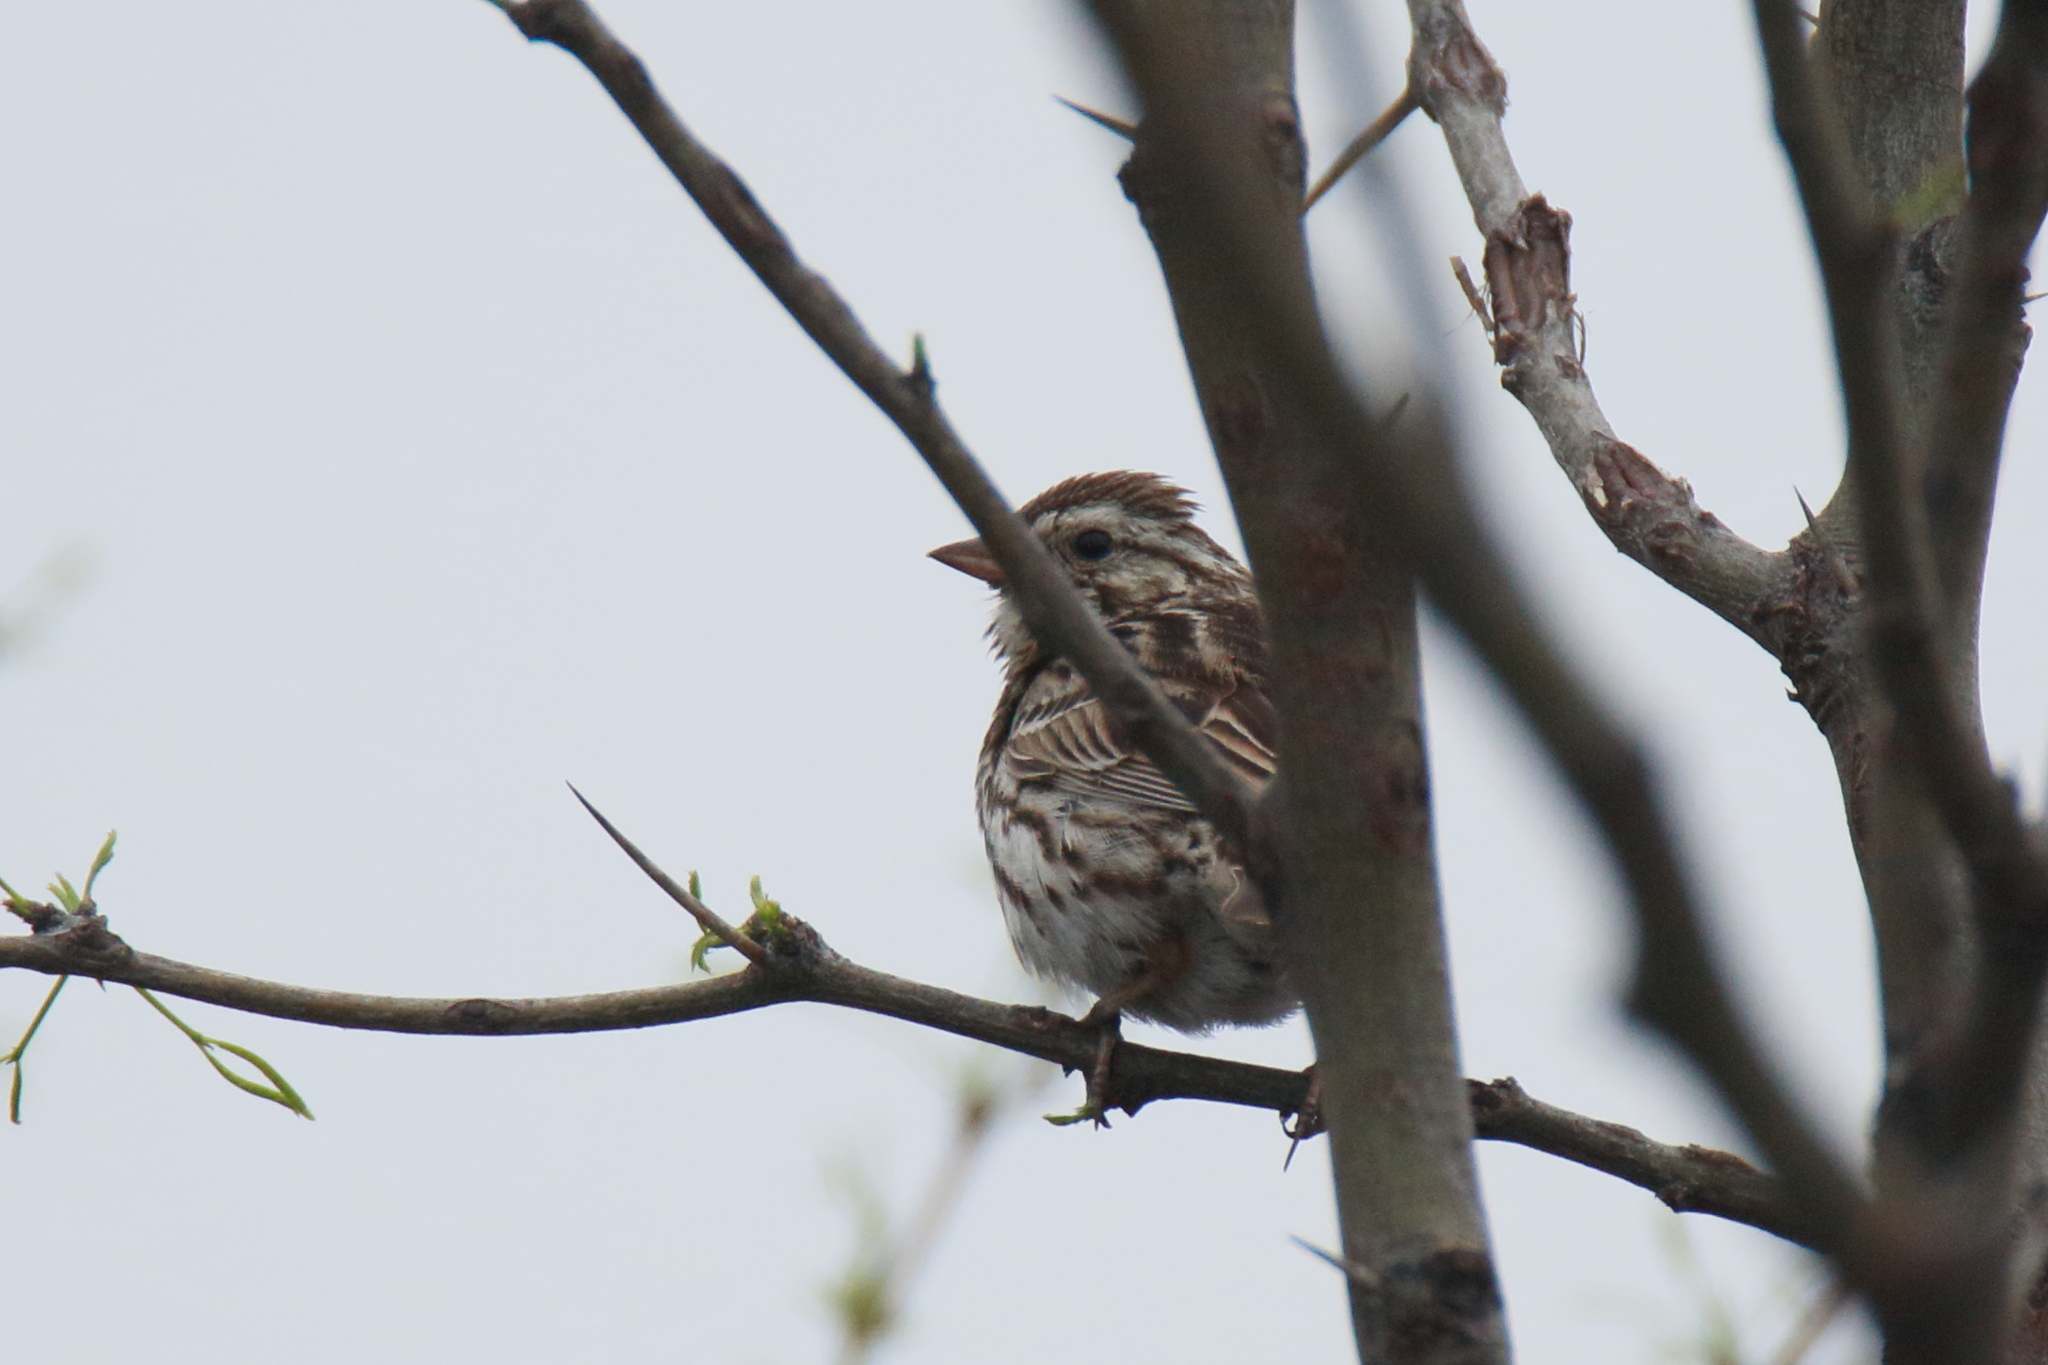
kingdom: Animalia
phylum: Chordata
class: Aves
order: Passeriformes
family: Passerellidae
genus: Melospiza
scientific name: Melospiza melodia
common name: Song sparrow
